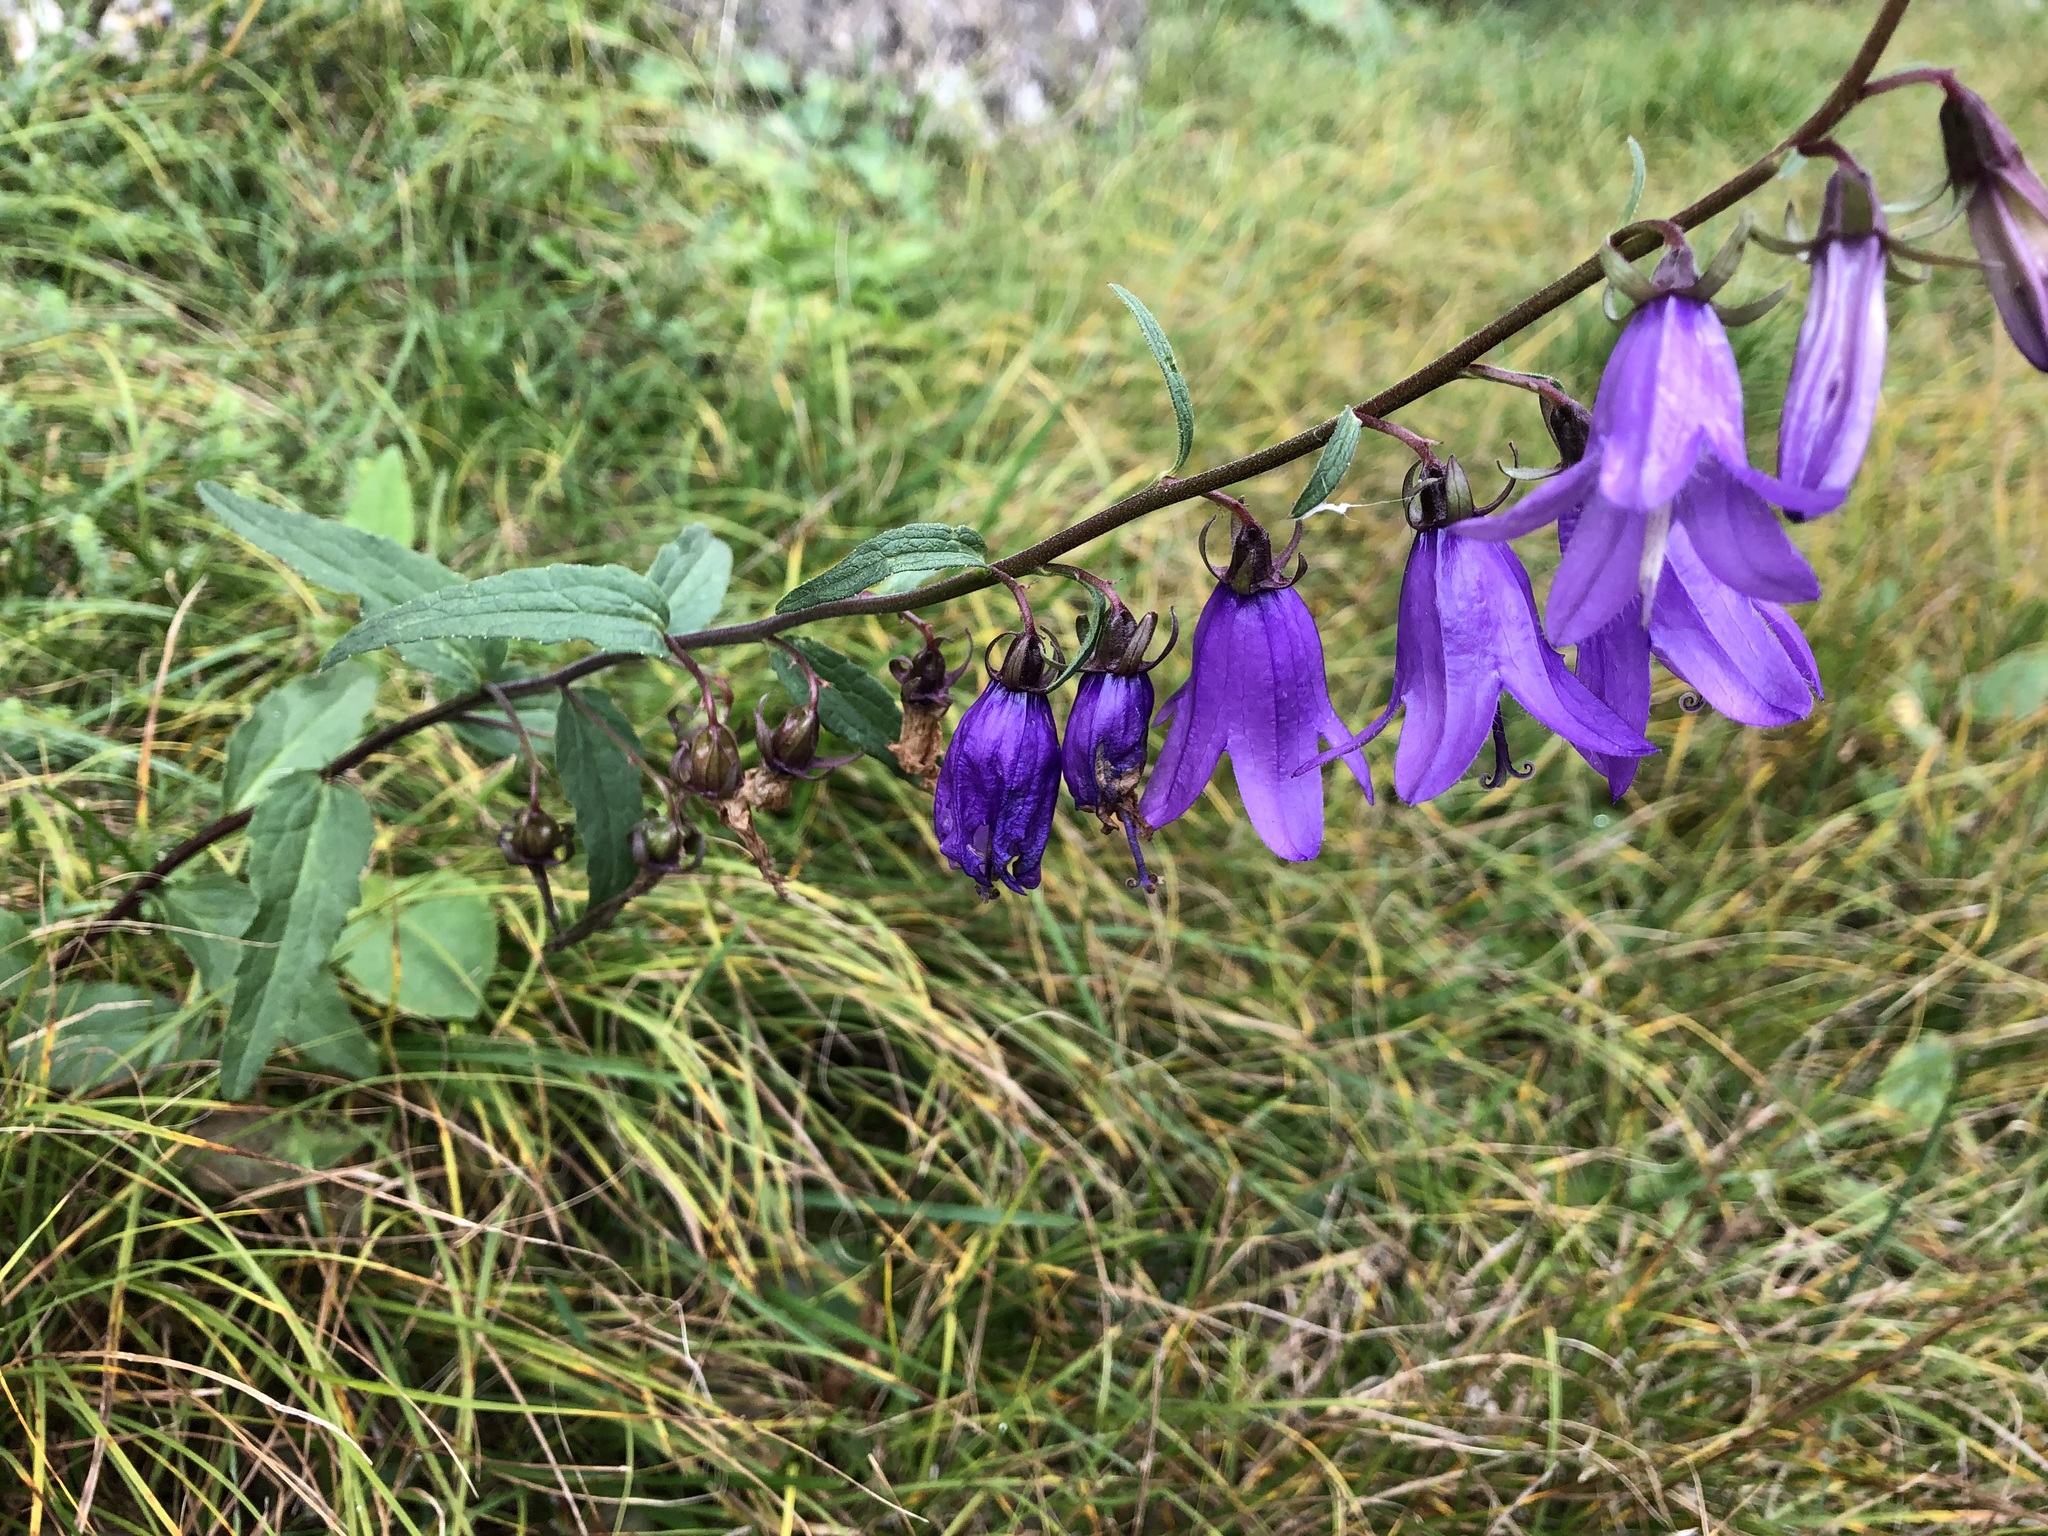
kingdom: Plantae
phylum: Tracheophyta
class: Magnoliopsida
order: Asterales
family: Campanulaceae
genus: Campanula
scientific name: Campanula rapunculoides
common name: Creeping bellflower
